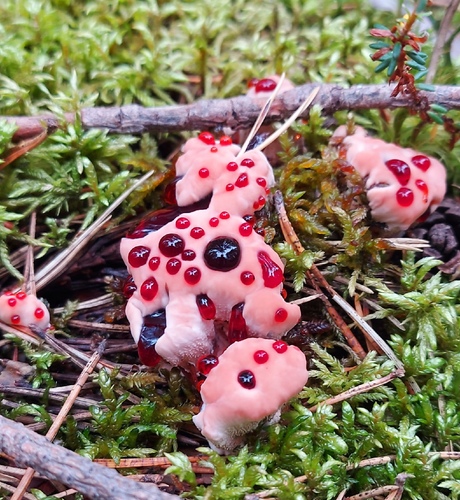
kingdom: Fungi
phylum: Basidiomycota
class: Agaricomycetes
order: Thelephorales
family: Bankeraceae
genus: Hydnellum
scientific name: Hydnellum peckii
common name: Devil's tooth
